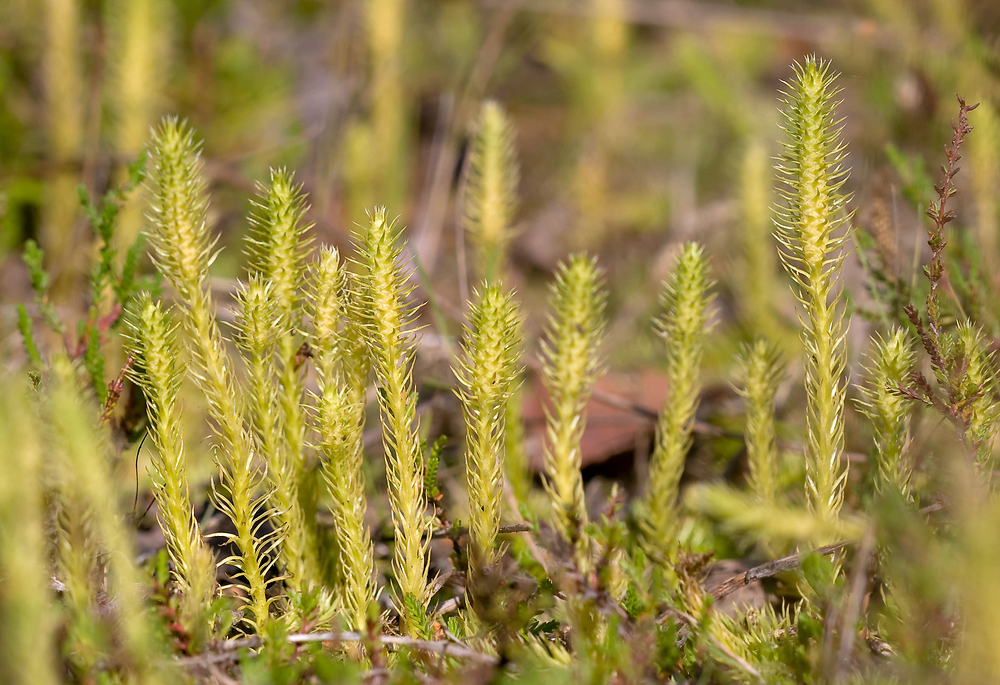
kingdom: Plantae
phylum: Tracheophyta
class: Lycopodiopsida
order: Lycopodiales
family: Lycopodiaceae
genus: Lycopodiella
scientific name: Lycopodiella inundata
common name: Marsh clubmoss
